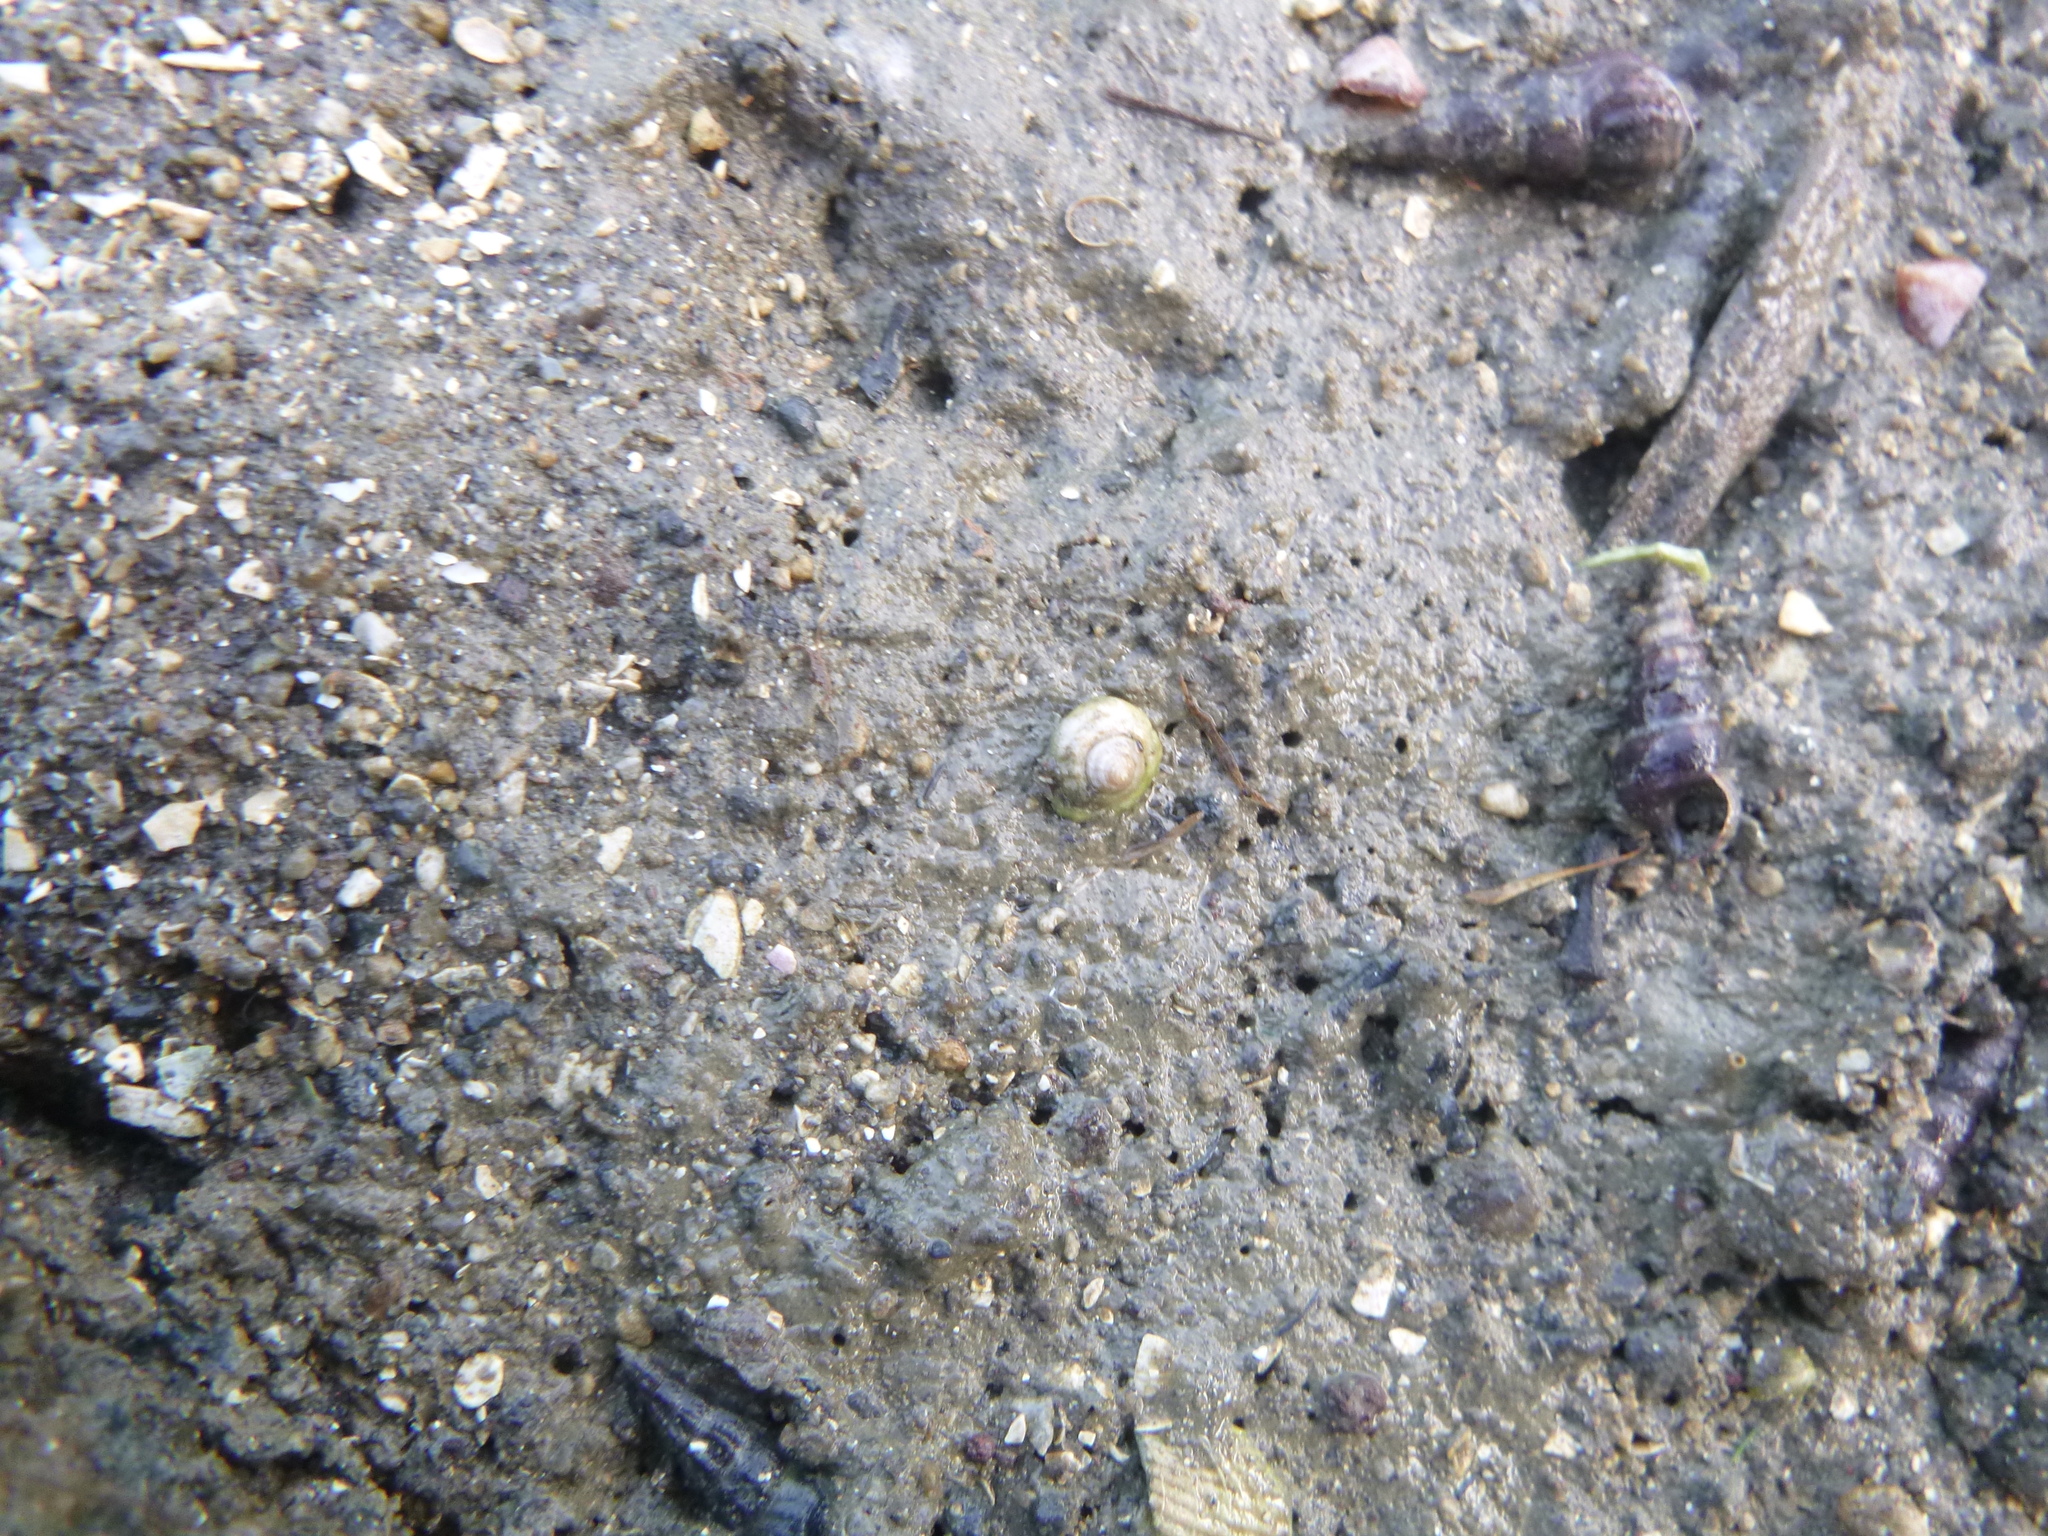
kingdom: Animalia
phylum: Mollusca
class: Gastropoda
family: Amphibolidae
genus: Amphibola
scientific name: Amphibola crenata
